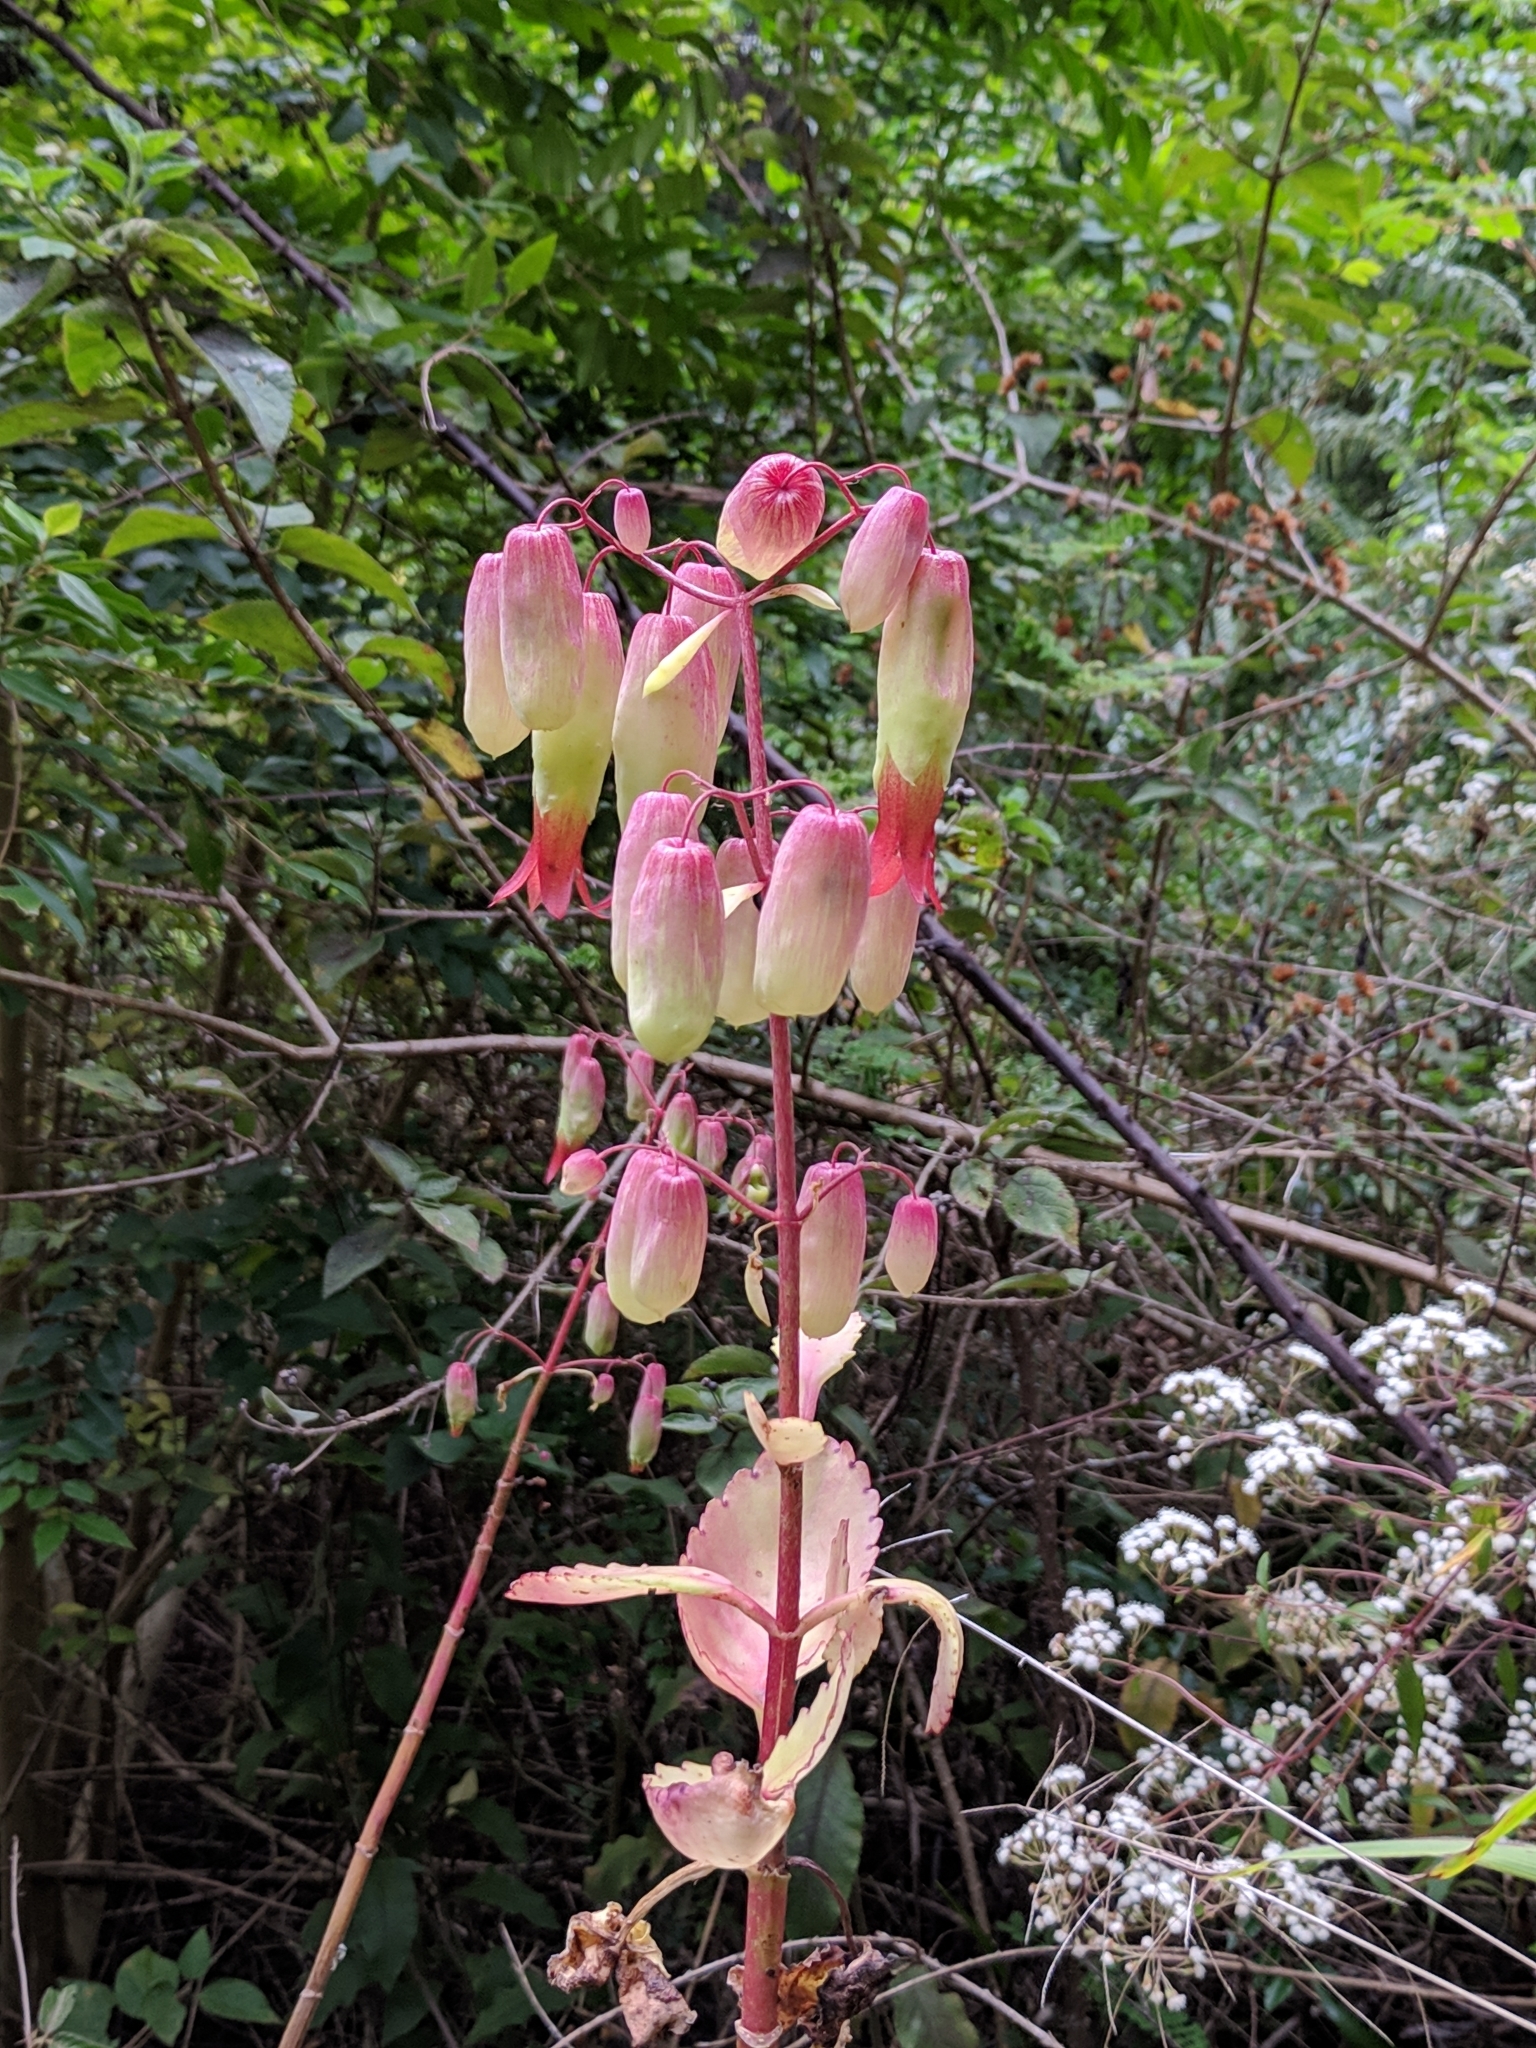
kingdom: Plantae
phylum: Tracheophyta
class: Magnoliopsida
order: Saxifragales
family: Crassulaceae
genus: Kalanchoe
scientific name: Kalanchoe pinnata
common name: Cathedral bells
